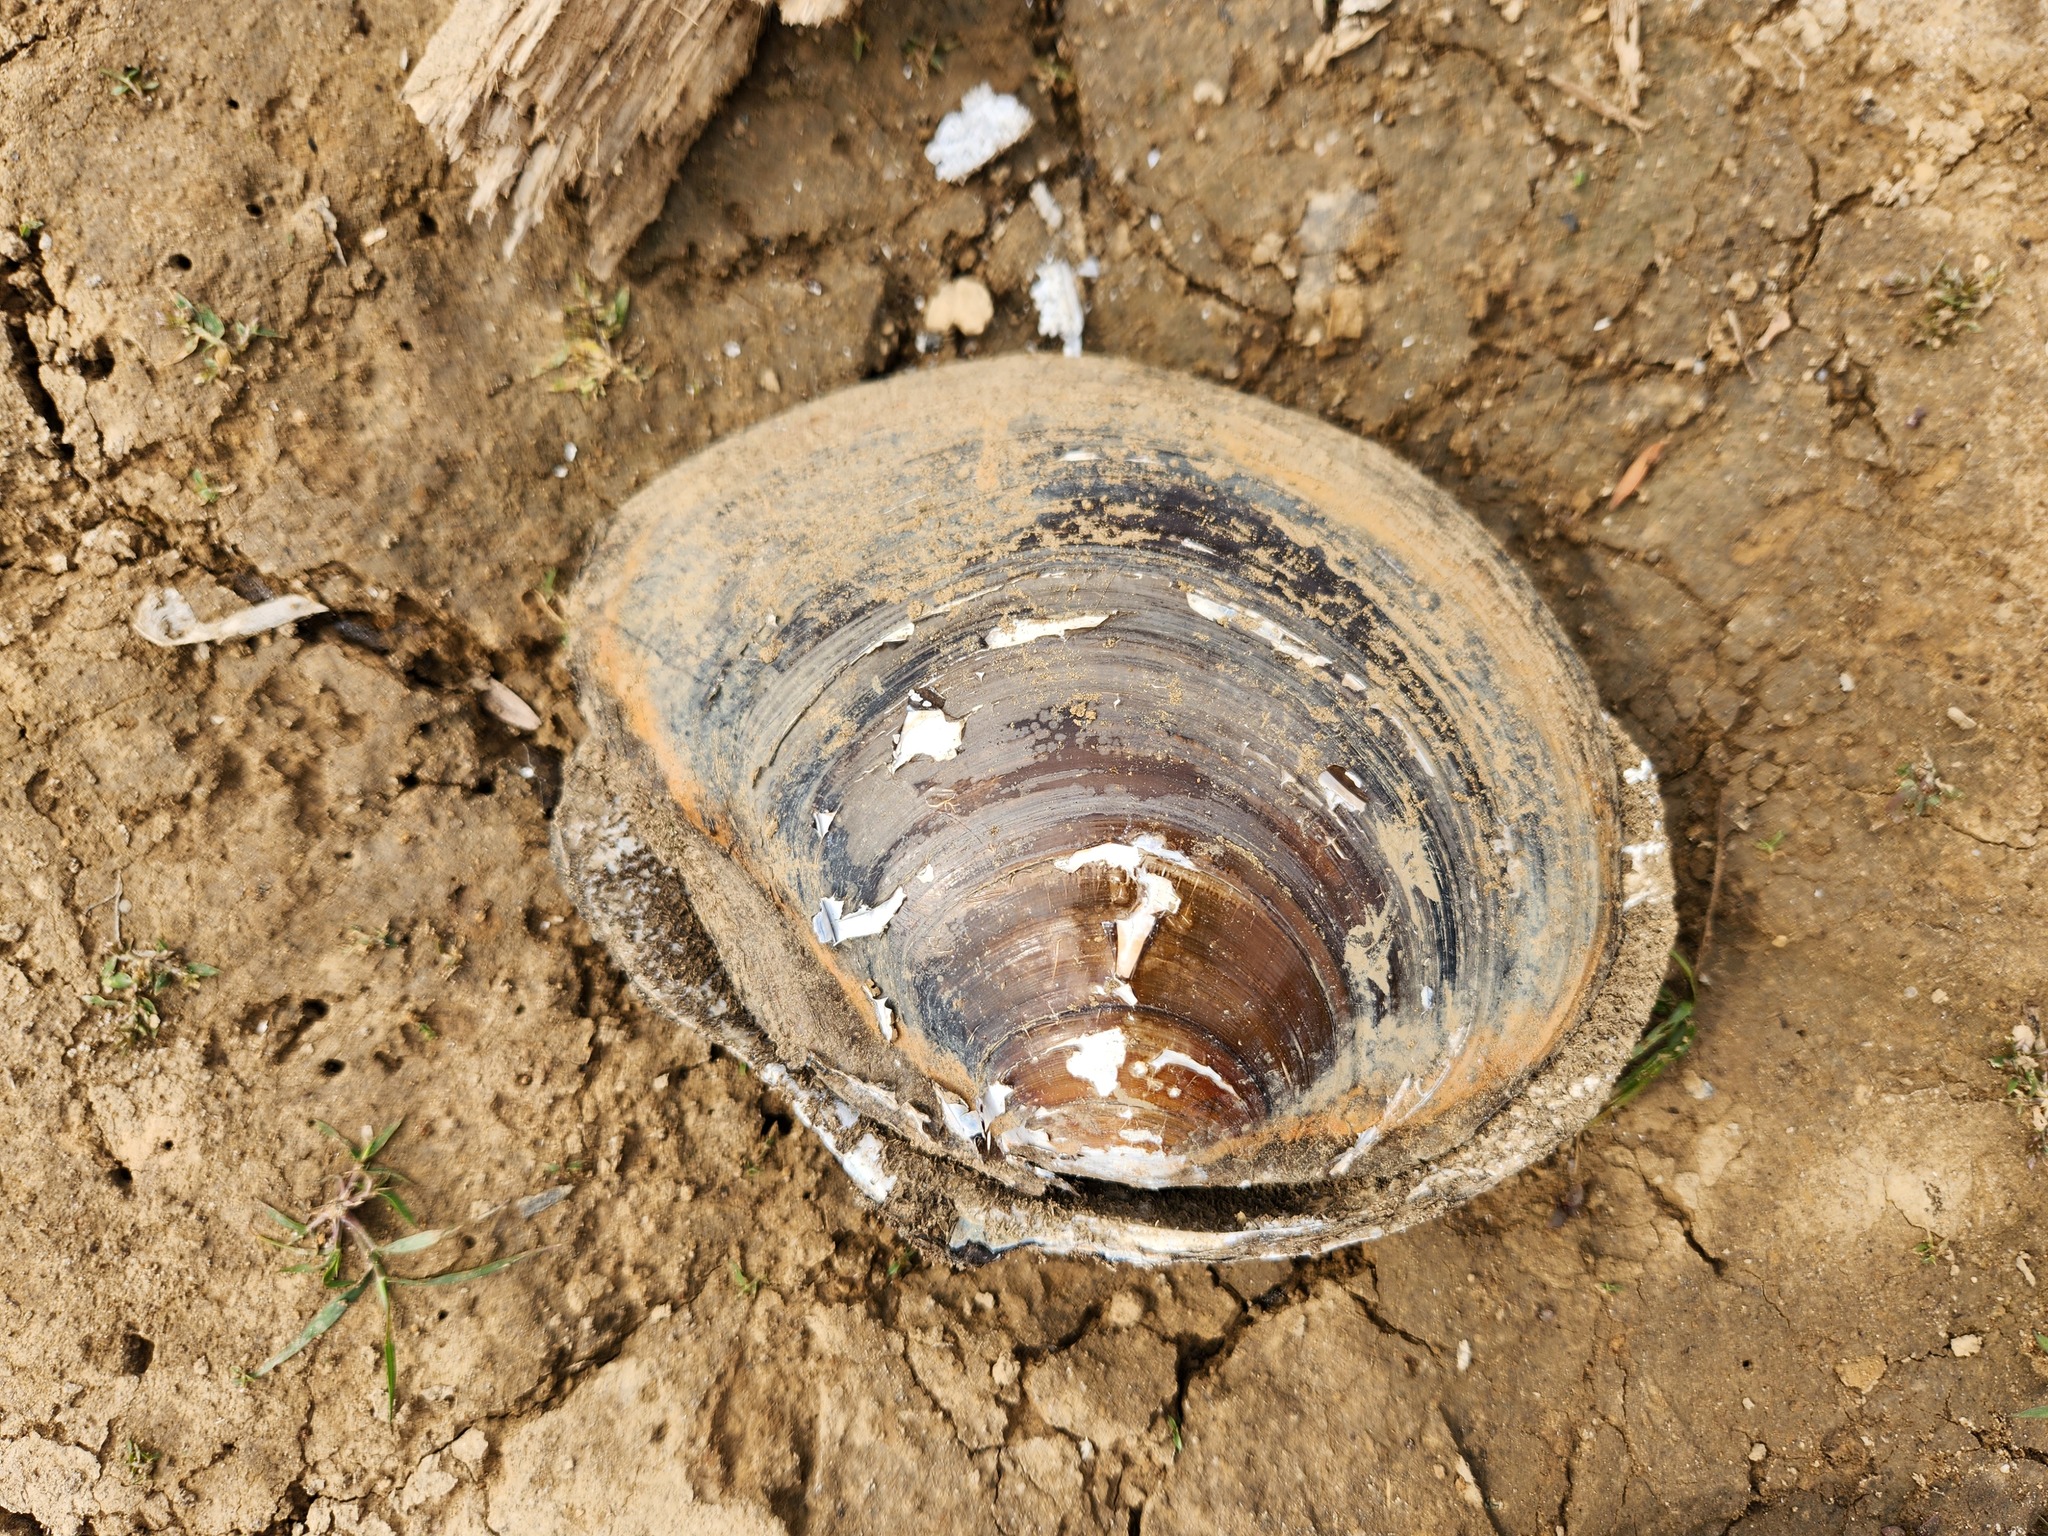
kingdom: Animalia
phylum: Mollusca
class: Bivalvia
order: Unionida
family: Unionidae
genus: Utterbackiana
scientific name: Utterbackiana suborbiculata
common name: Flat floater
